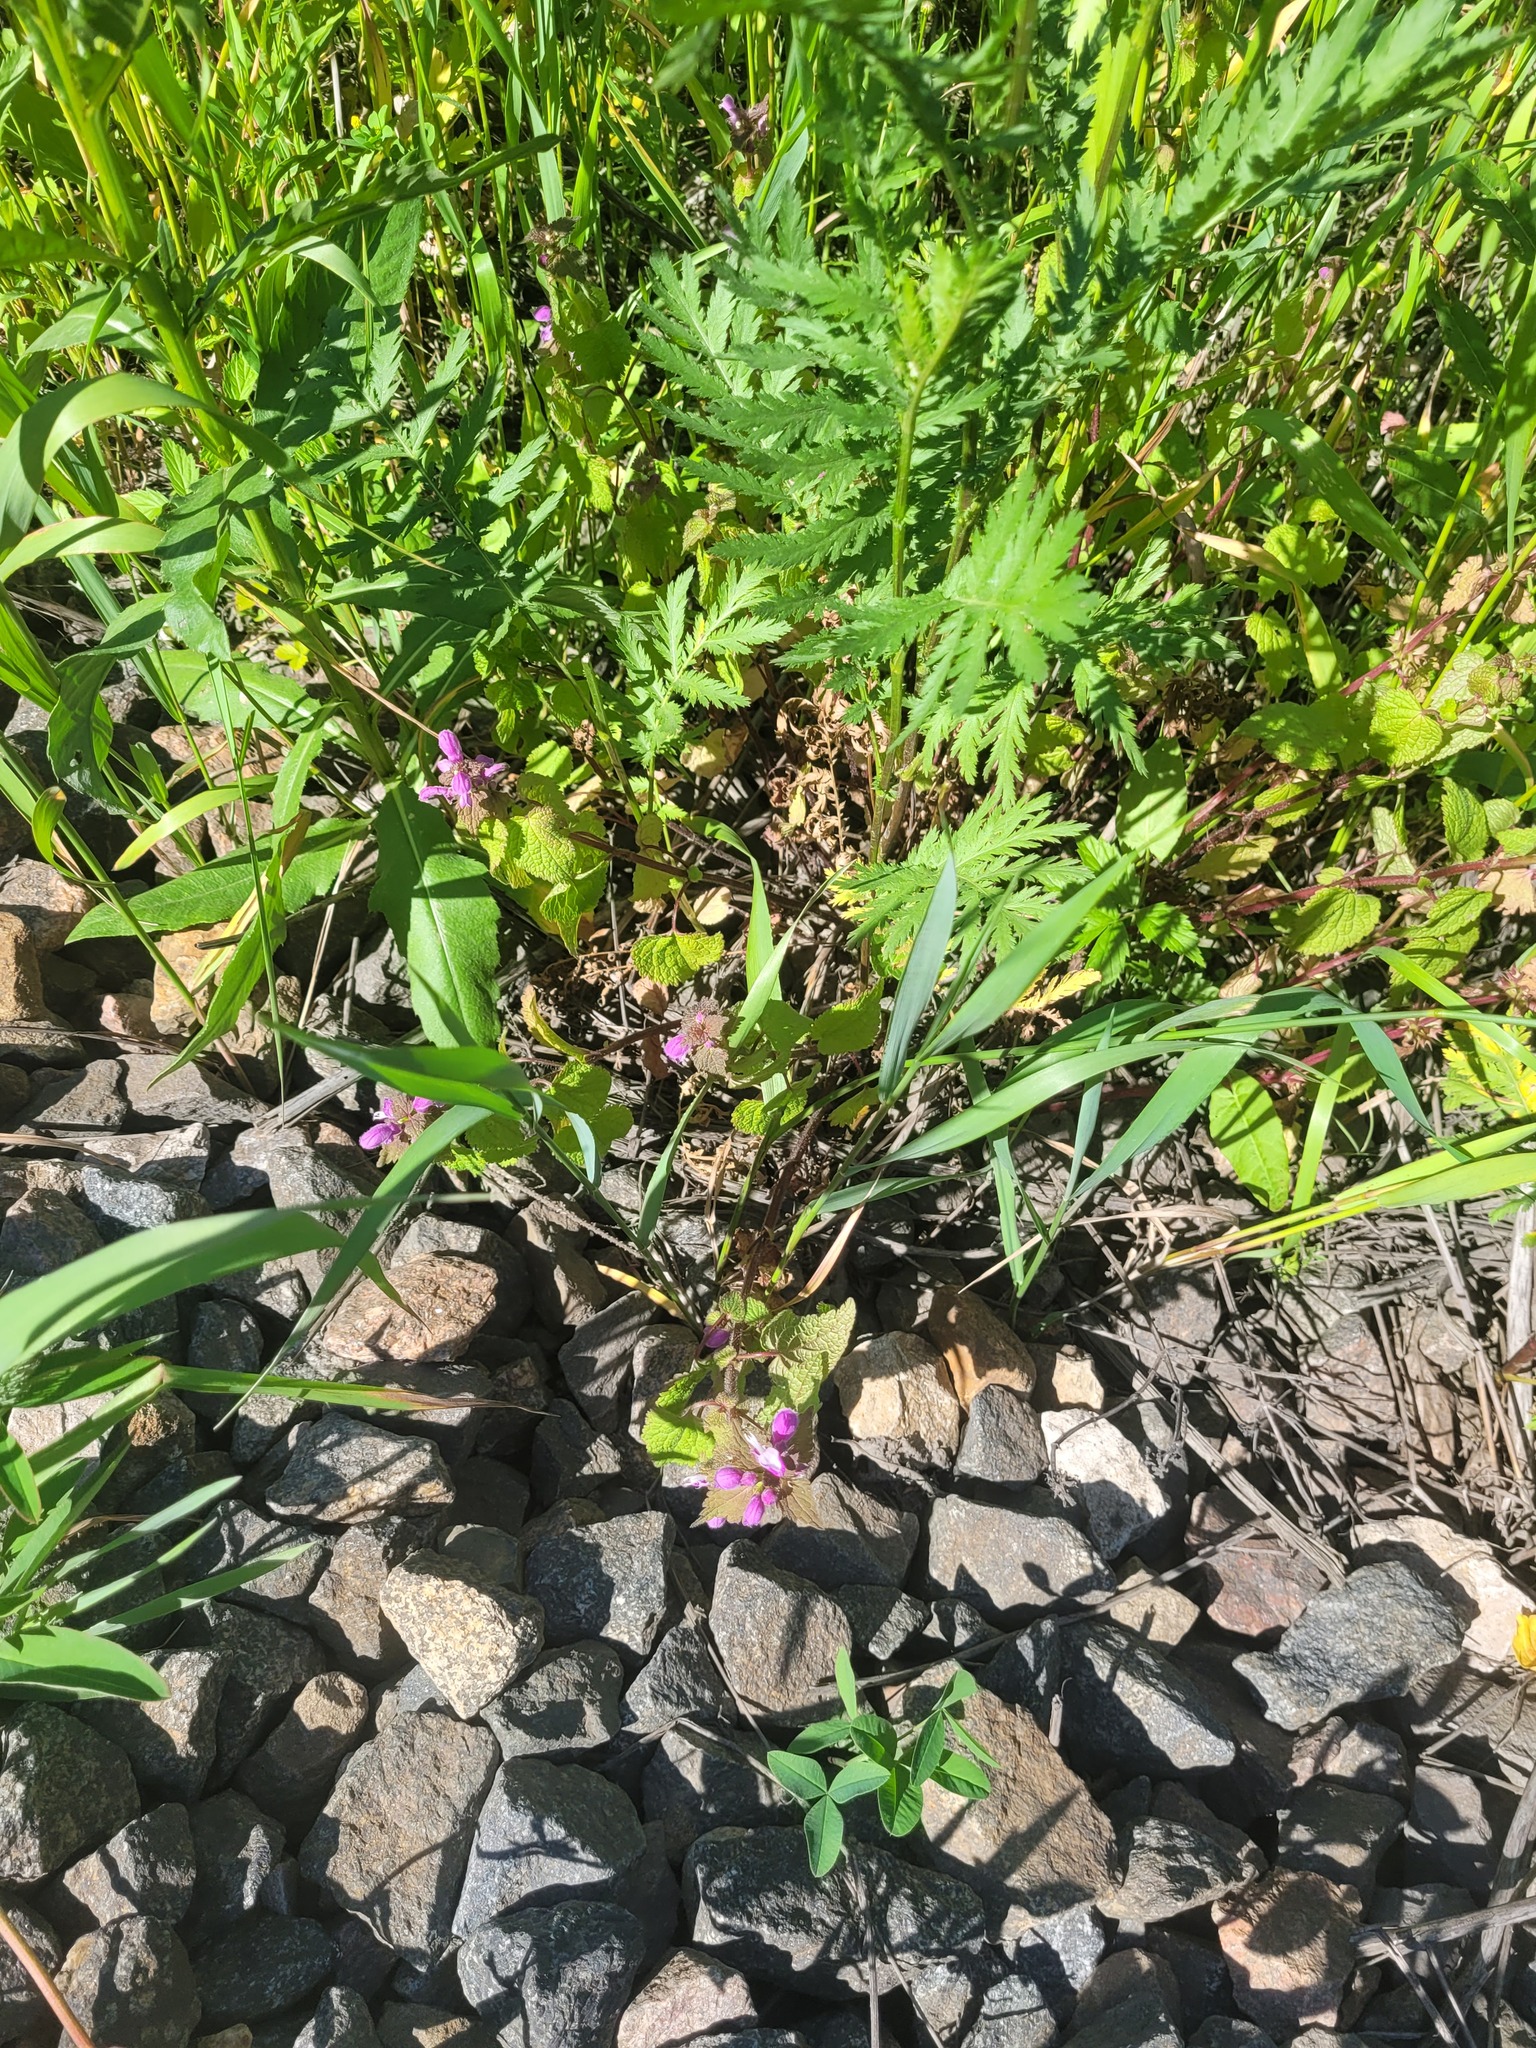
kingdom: Plantae
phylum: Tracheophyta
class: Magnoliopsida
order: Lamiales
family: Lamiaceae
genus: Lamium
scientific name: Lamium maculatum
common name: Spotted dead-nettle
